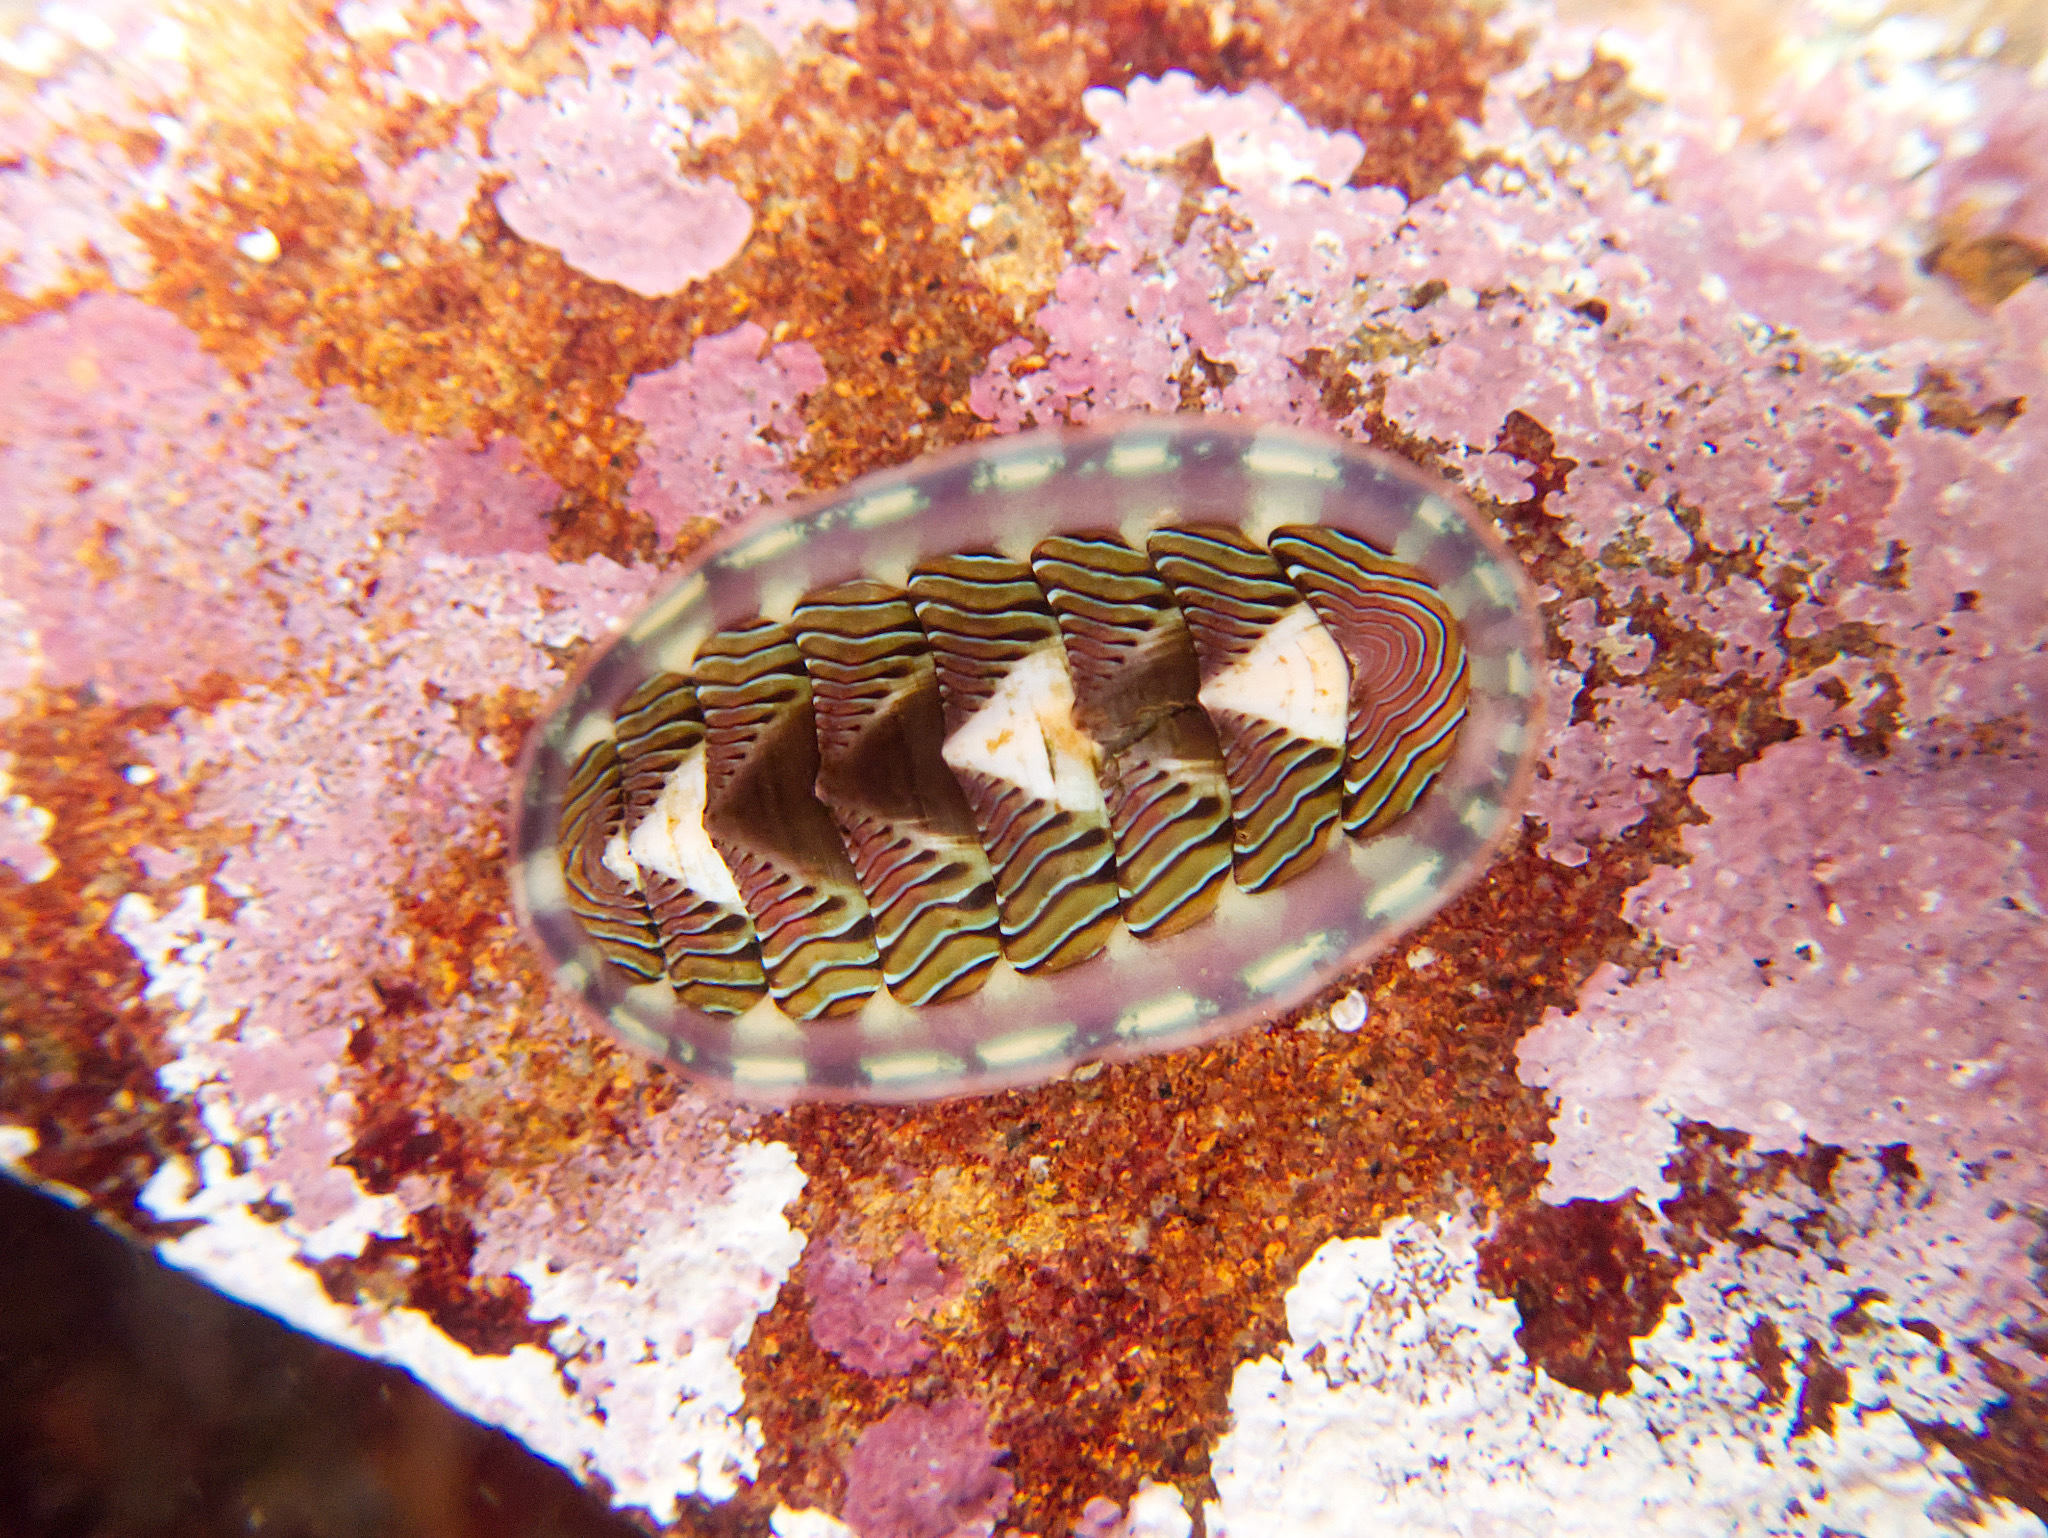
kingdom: Animalia
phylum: Mollusca
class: Polyplacophora
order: Chitonida
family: Tonicellidae
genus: Tonicella
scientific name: Tonicella lineata
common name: Lined chiton
